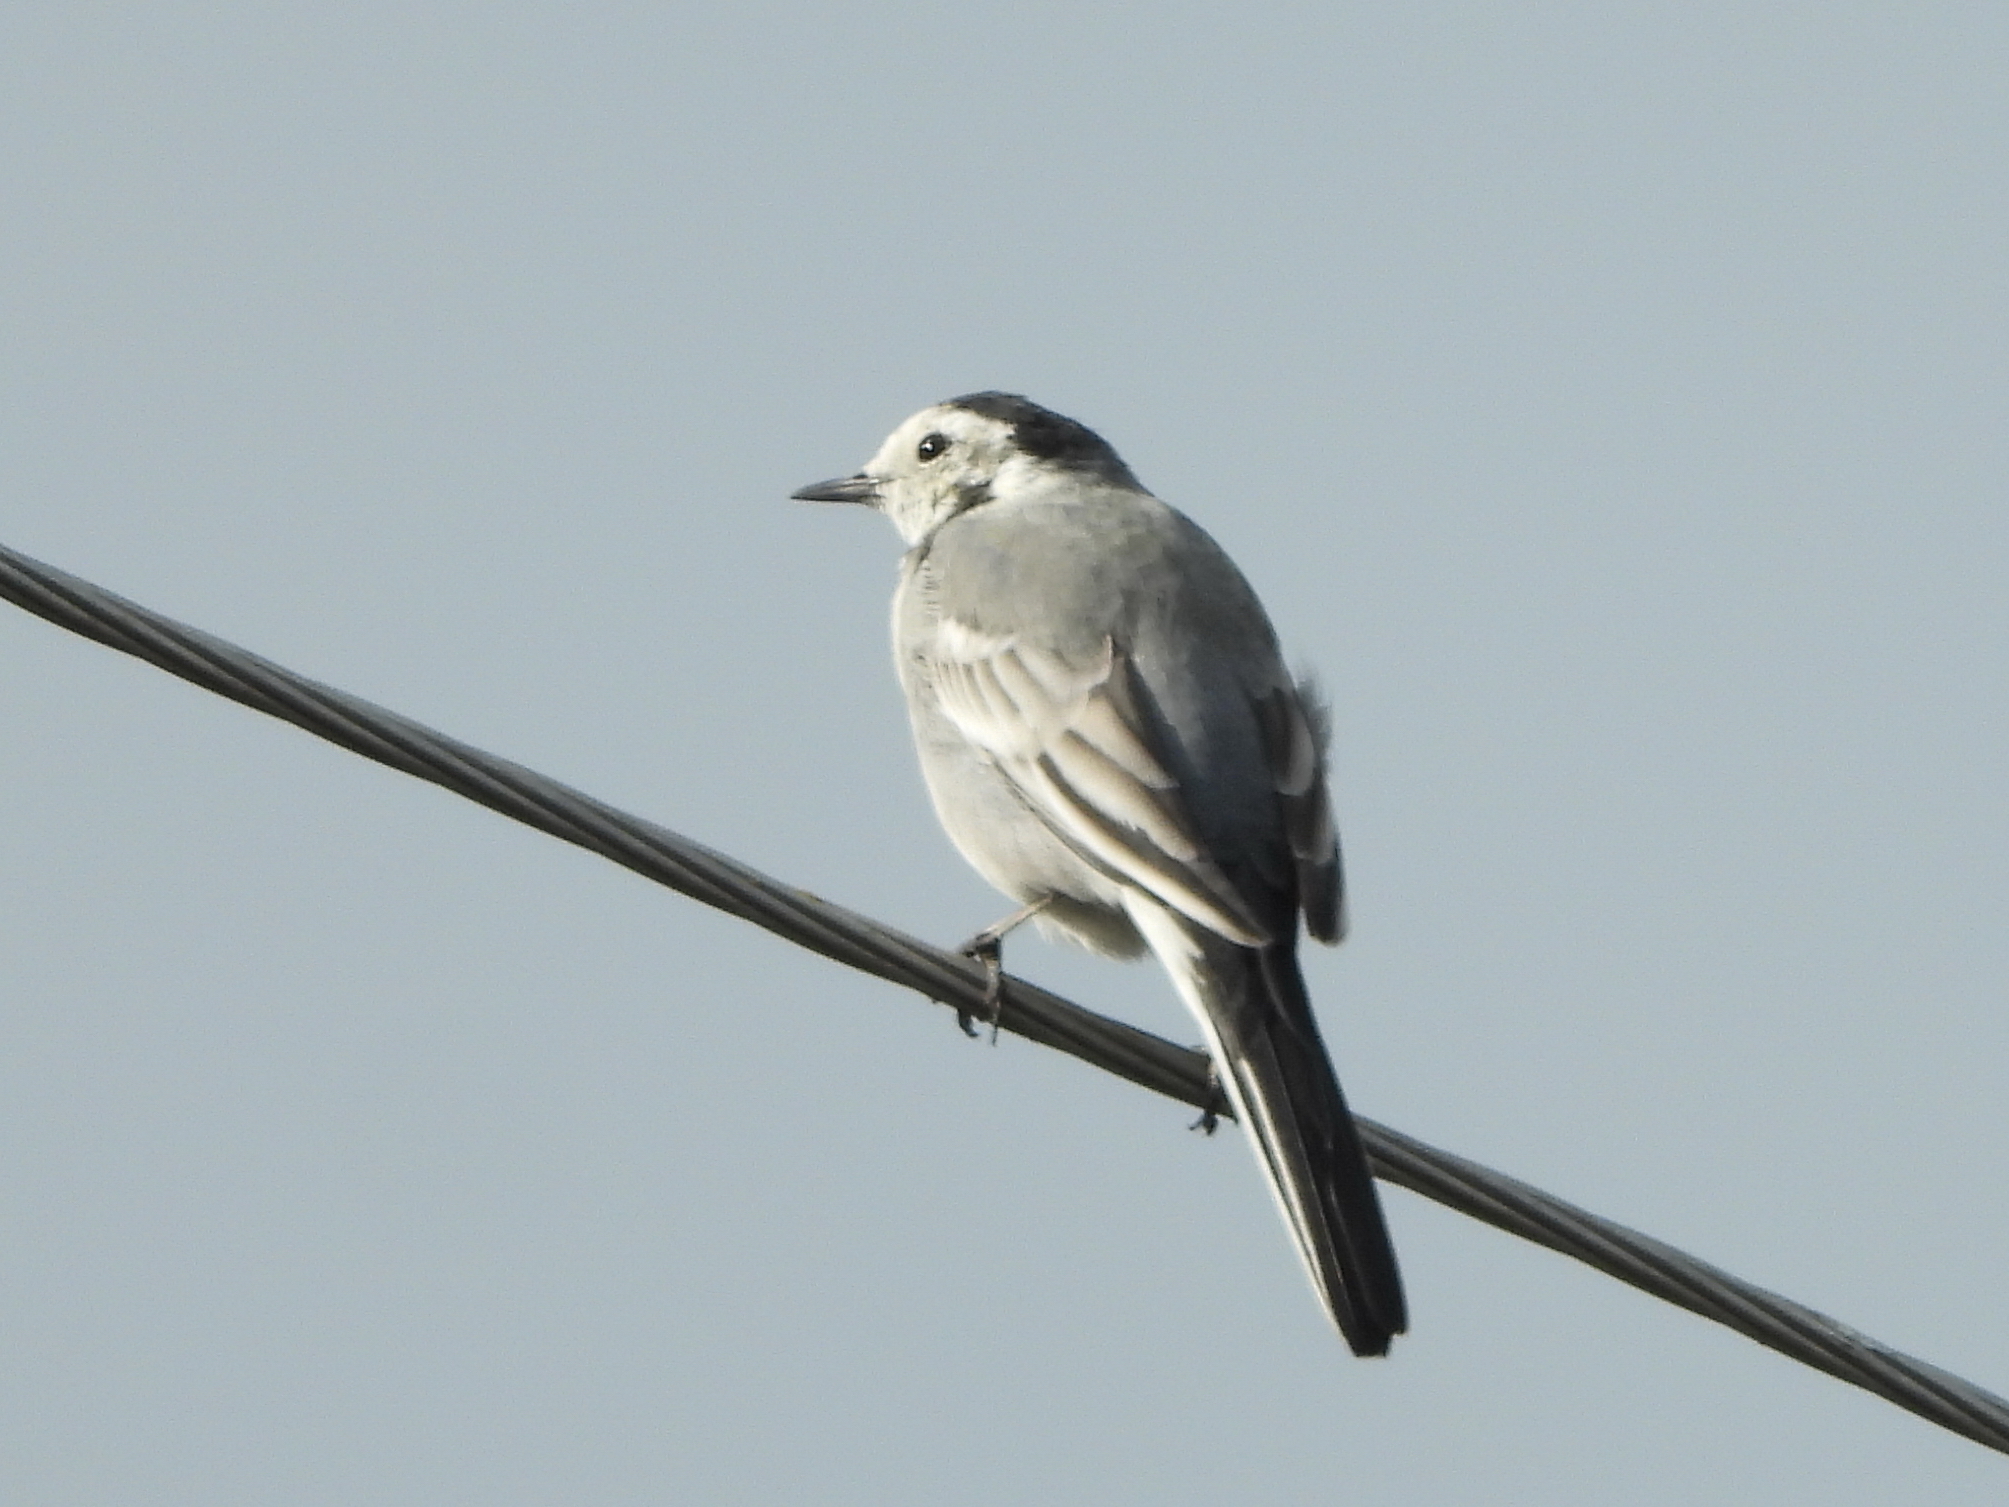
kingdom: Animalia
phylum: Chordata
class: Aves
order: Passeriformes
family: Motacillidae
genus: Motacilla
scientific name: Motacilla alba
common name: White wagtail
